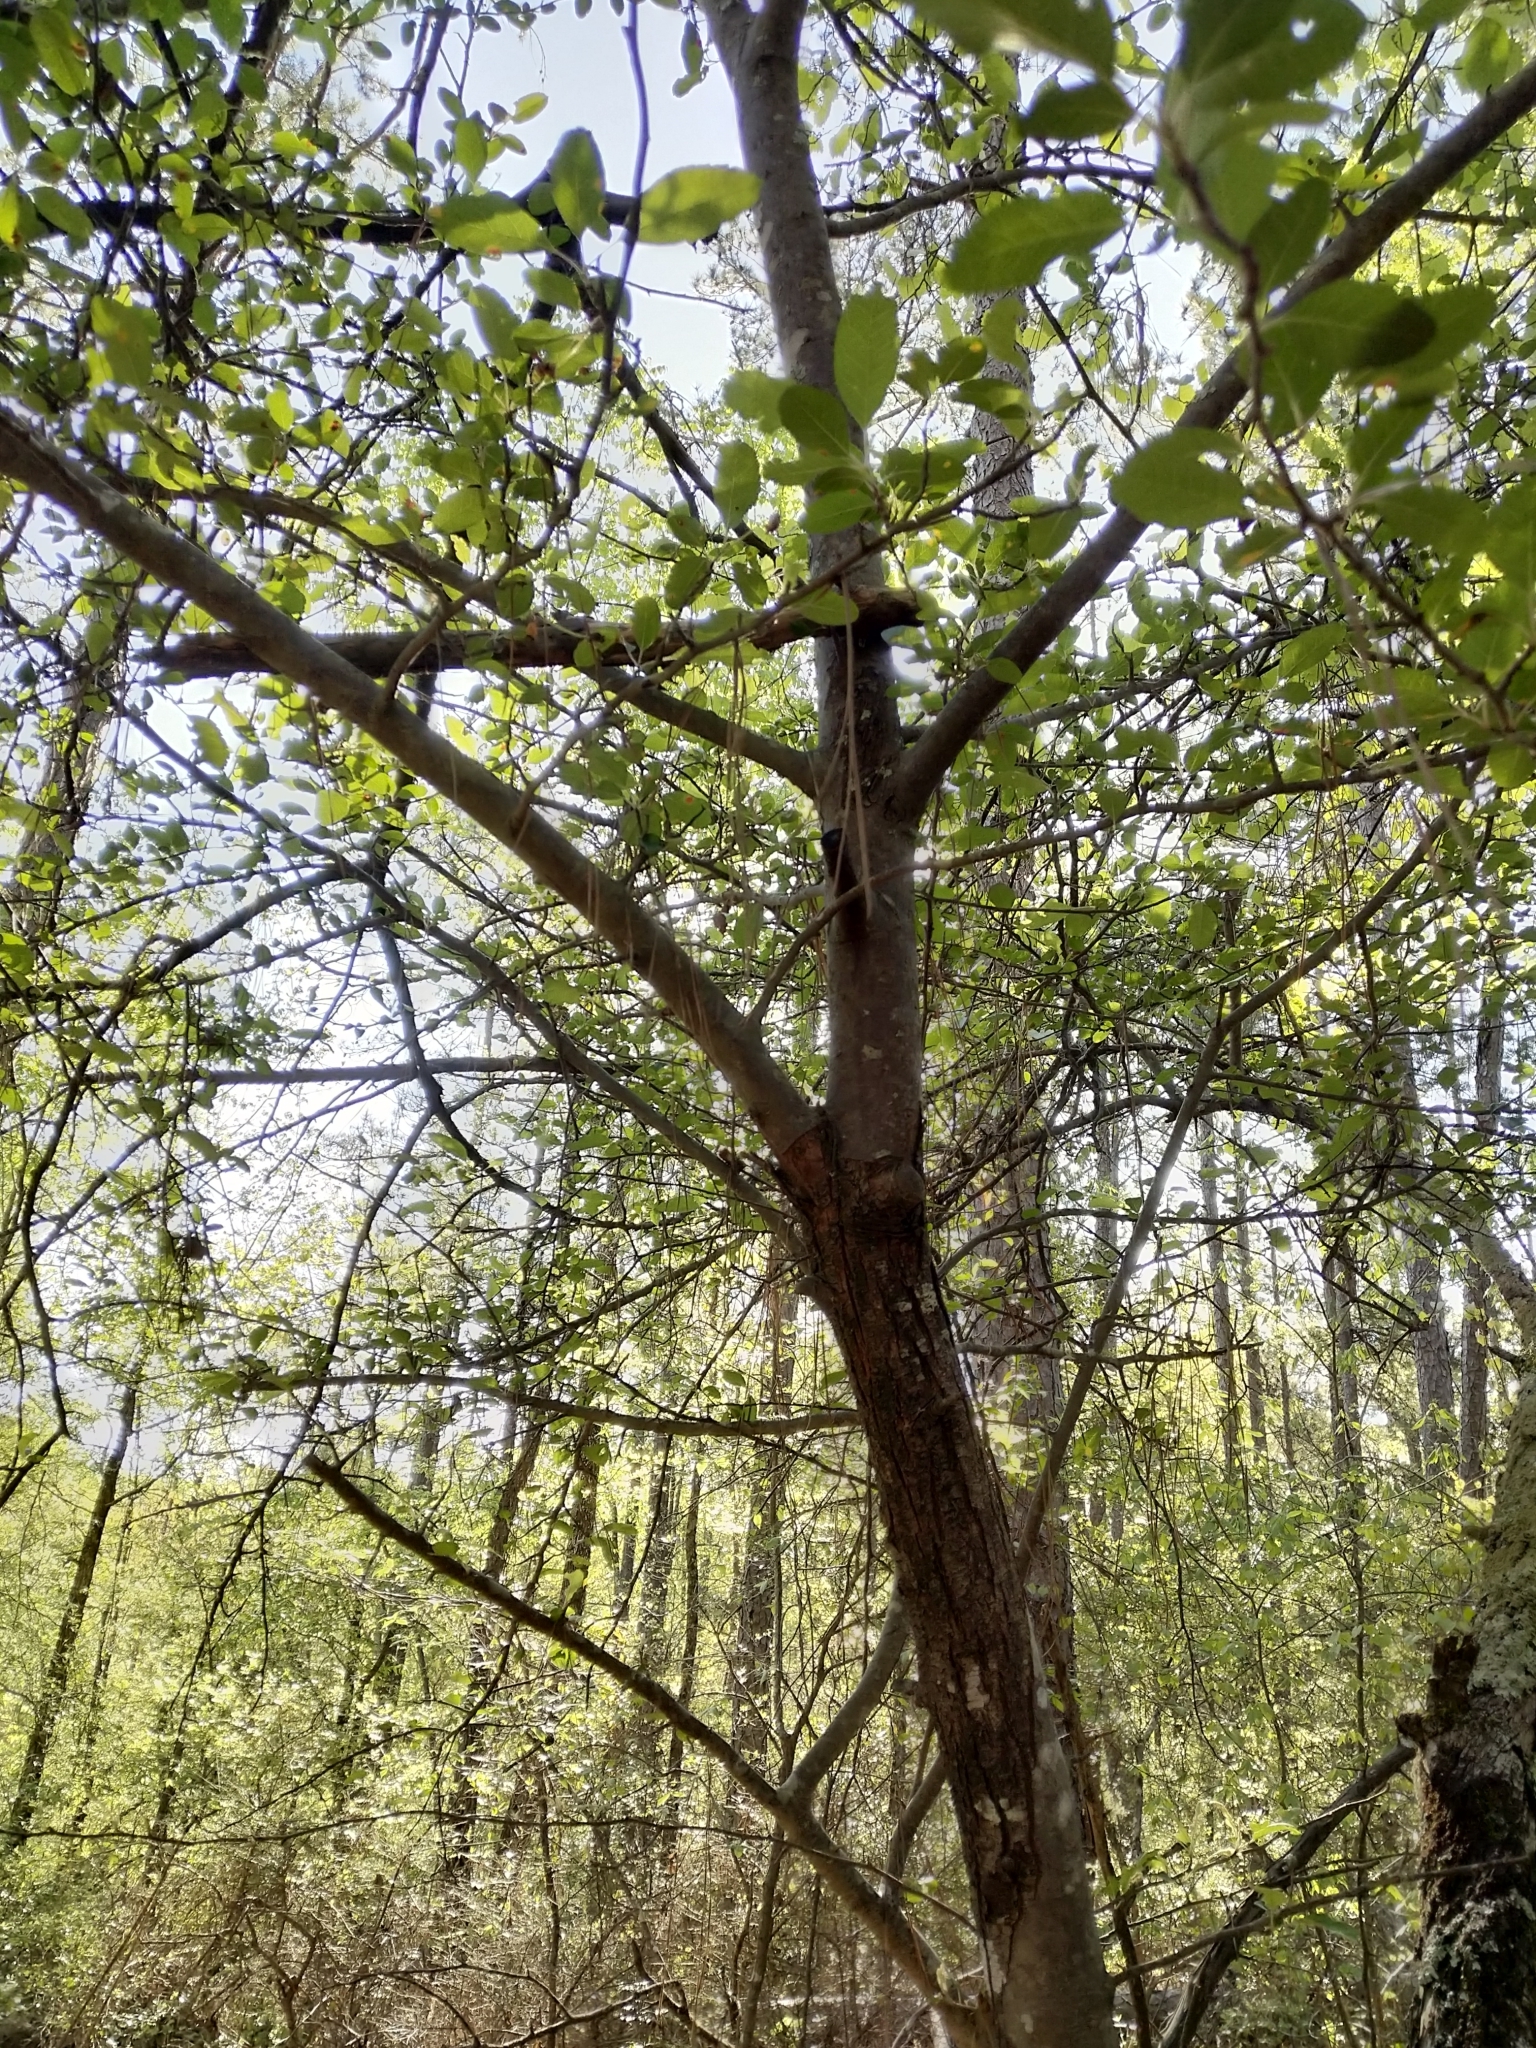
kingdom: Plantae
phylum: Tracheophyta
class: Magnoliopsida
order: Rosales
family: Rosaceae
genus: Malus
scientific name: Malus angustifolia
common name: Southern crab apple
